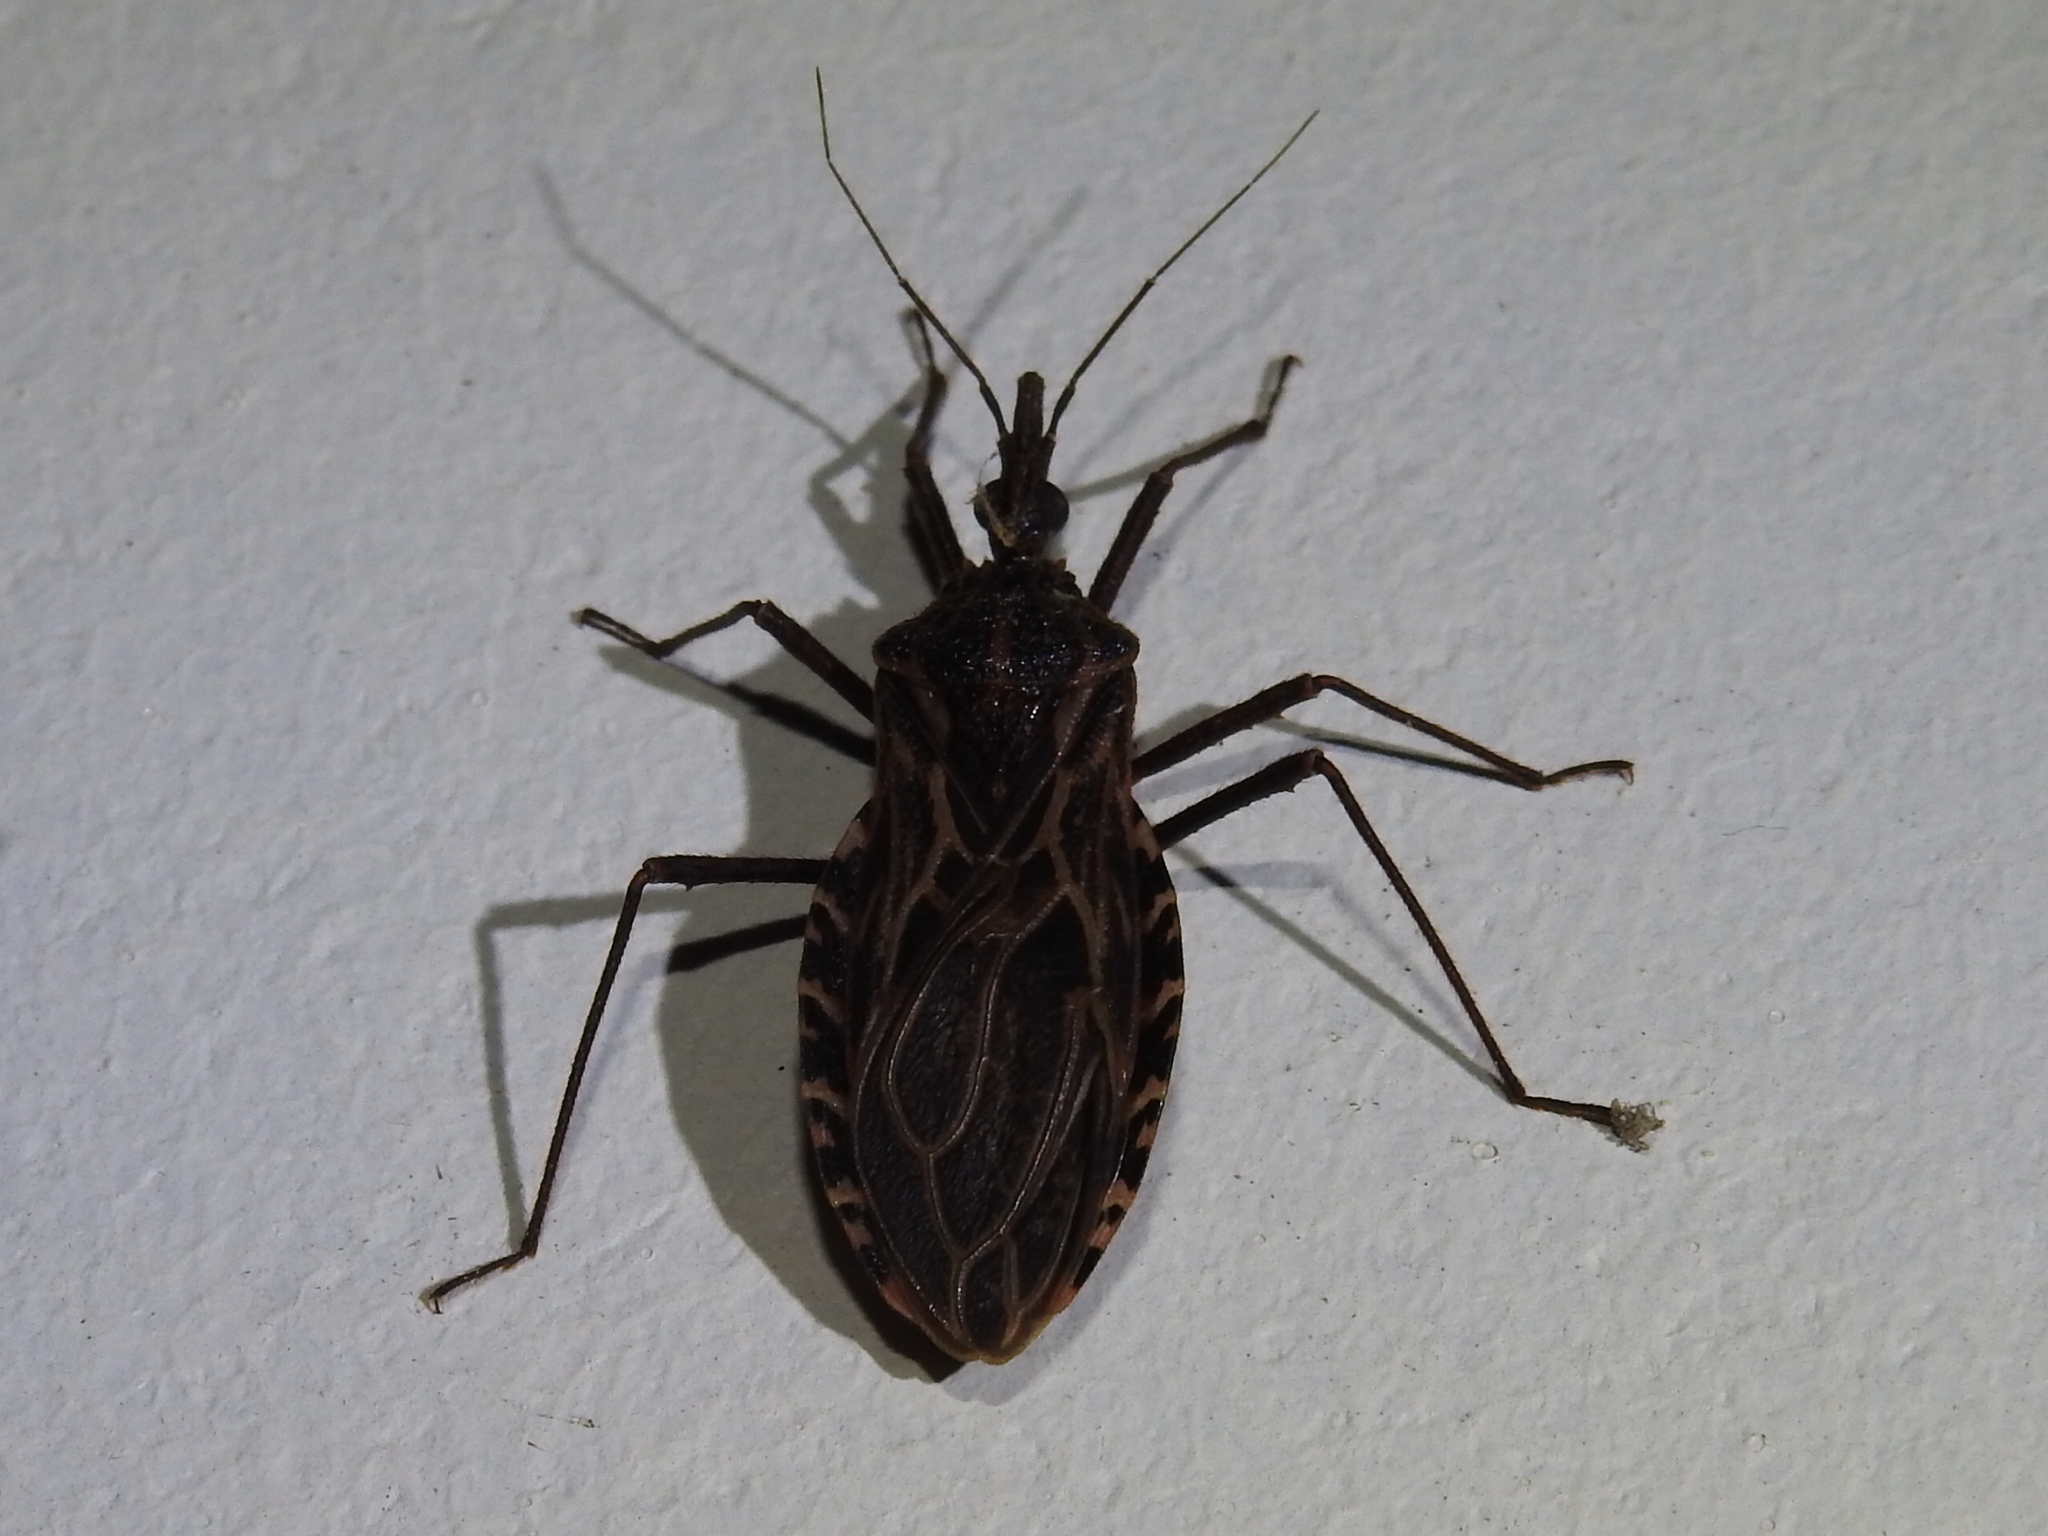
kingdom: Animalia
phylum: Arthropoda
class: Insecta
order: Hemiptera
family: Reduviidae
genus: Triatoma
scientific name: Triatoma dispar
